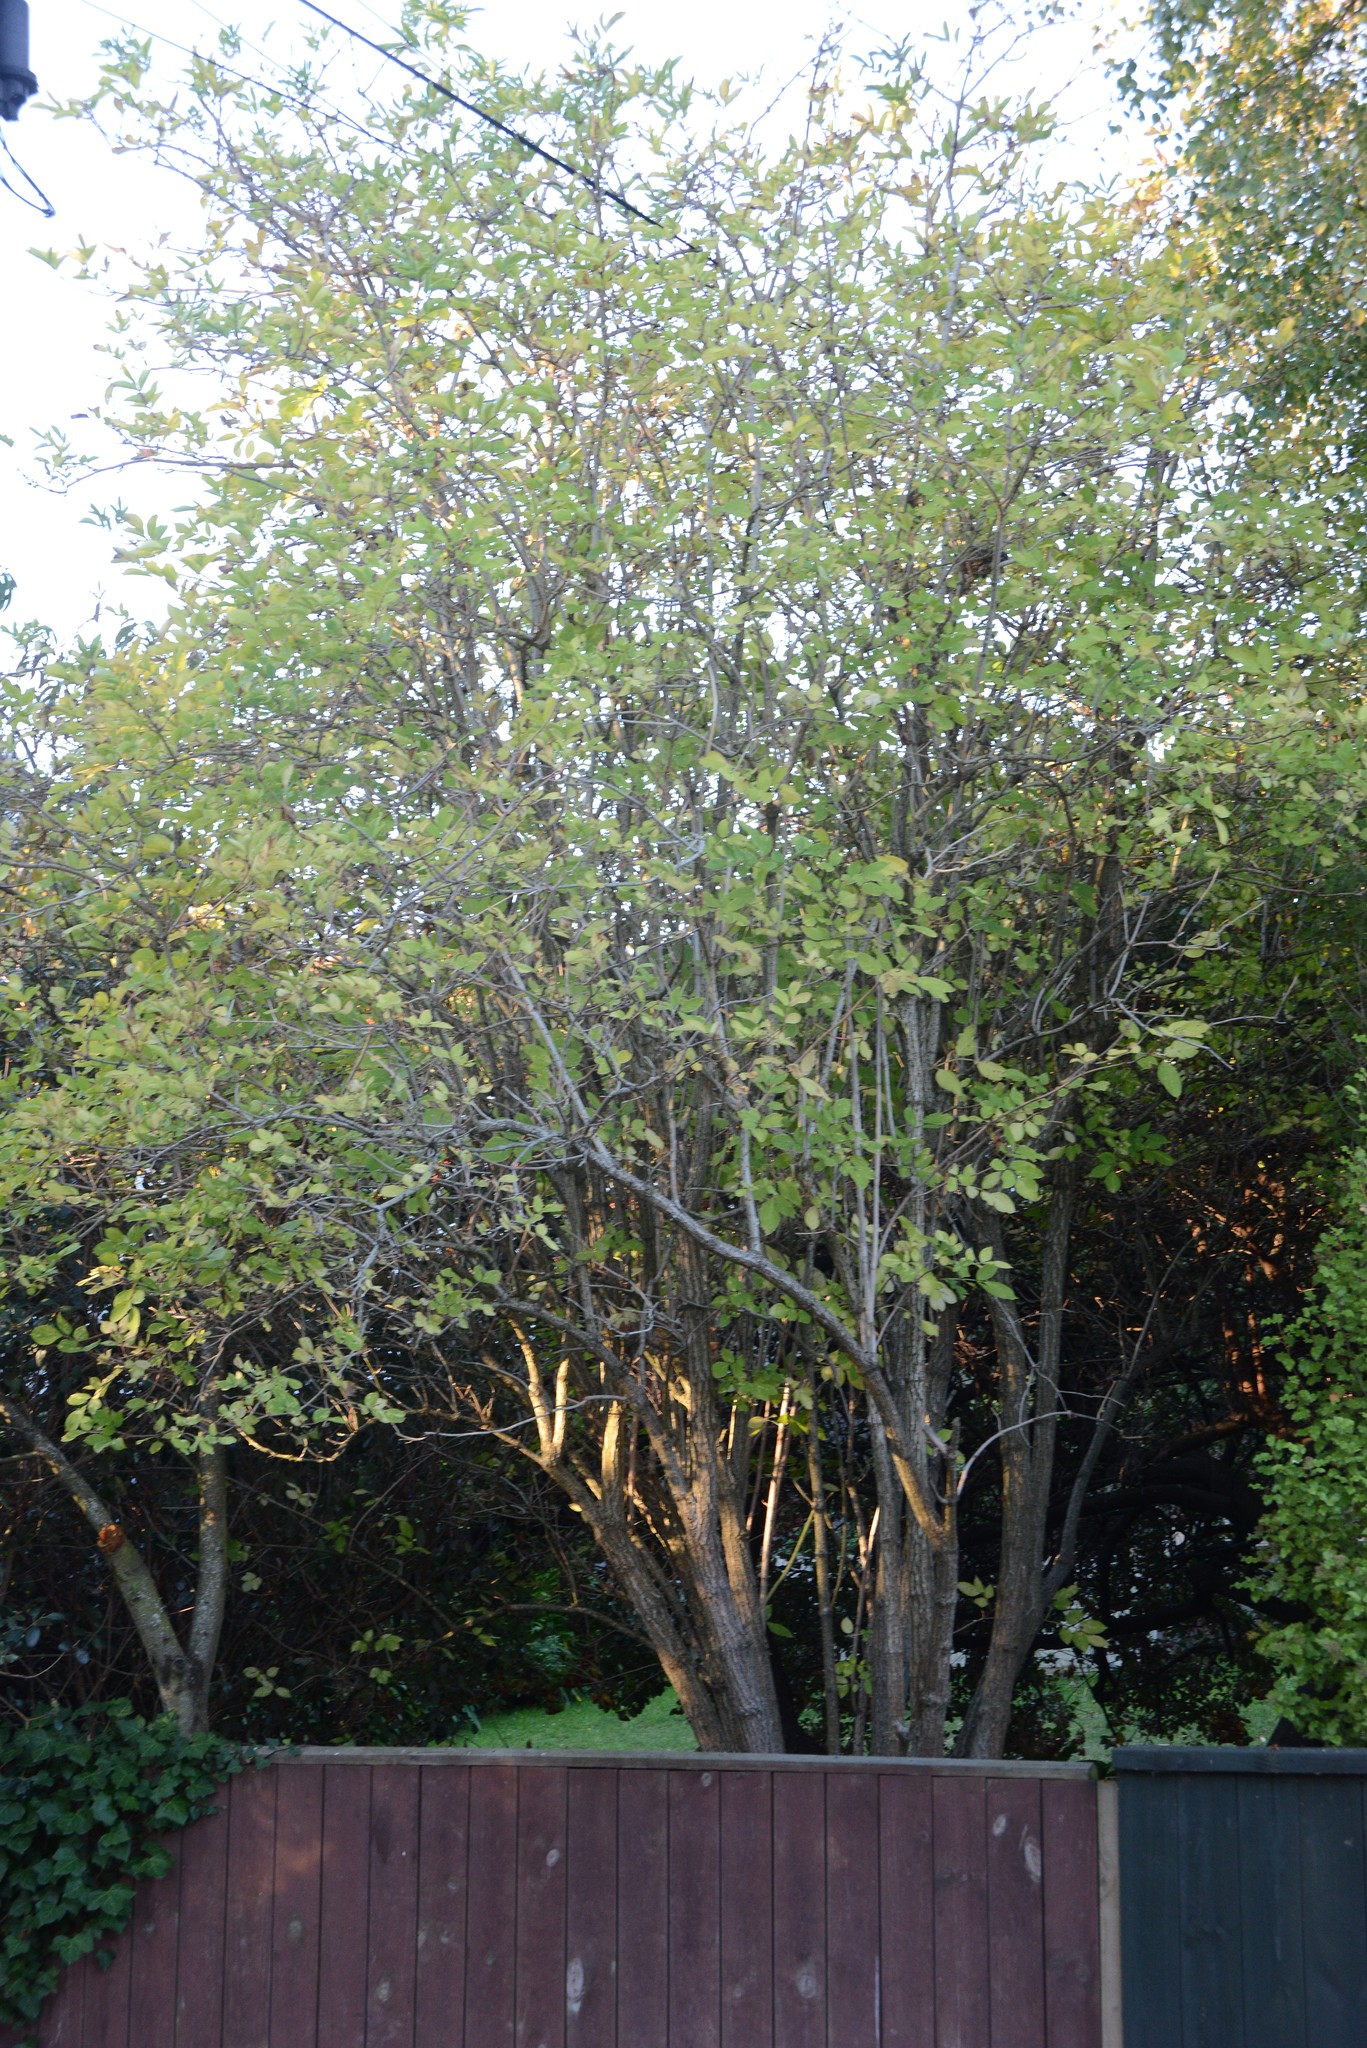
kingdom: Plantae
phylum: Tracheophyta
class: Magnoliopsida
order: Dipsacales
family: Viburnaceae
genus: Sambucus
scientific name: Sambucus nigra
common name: Elder
